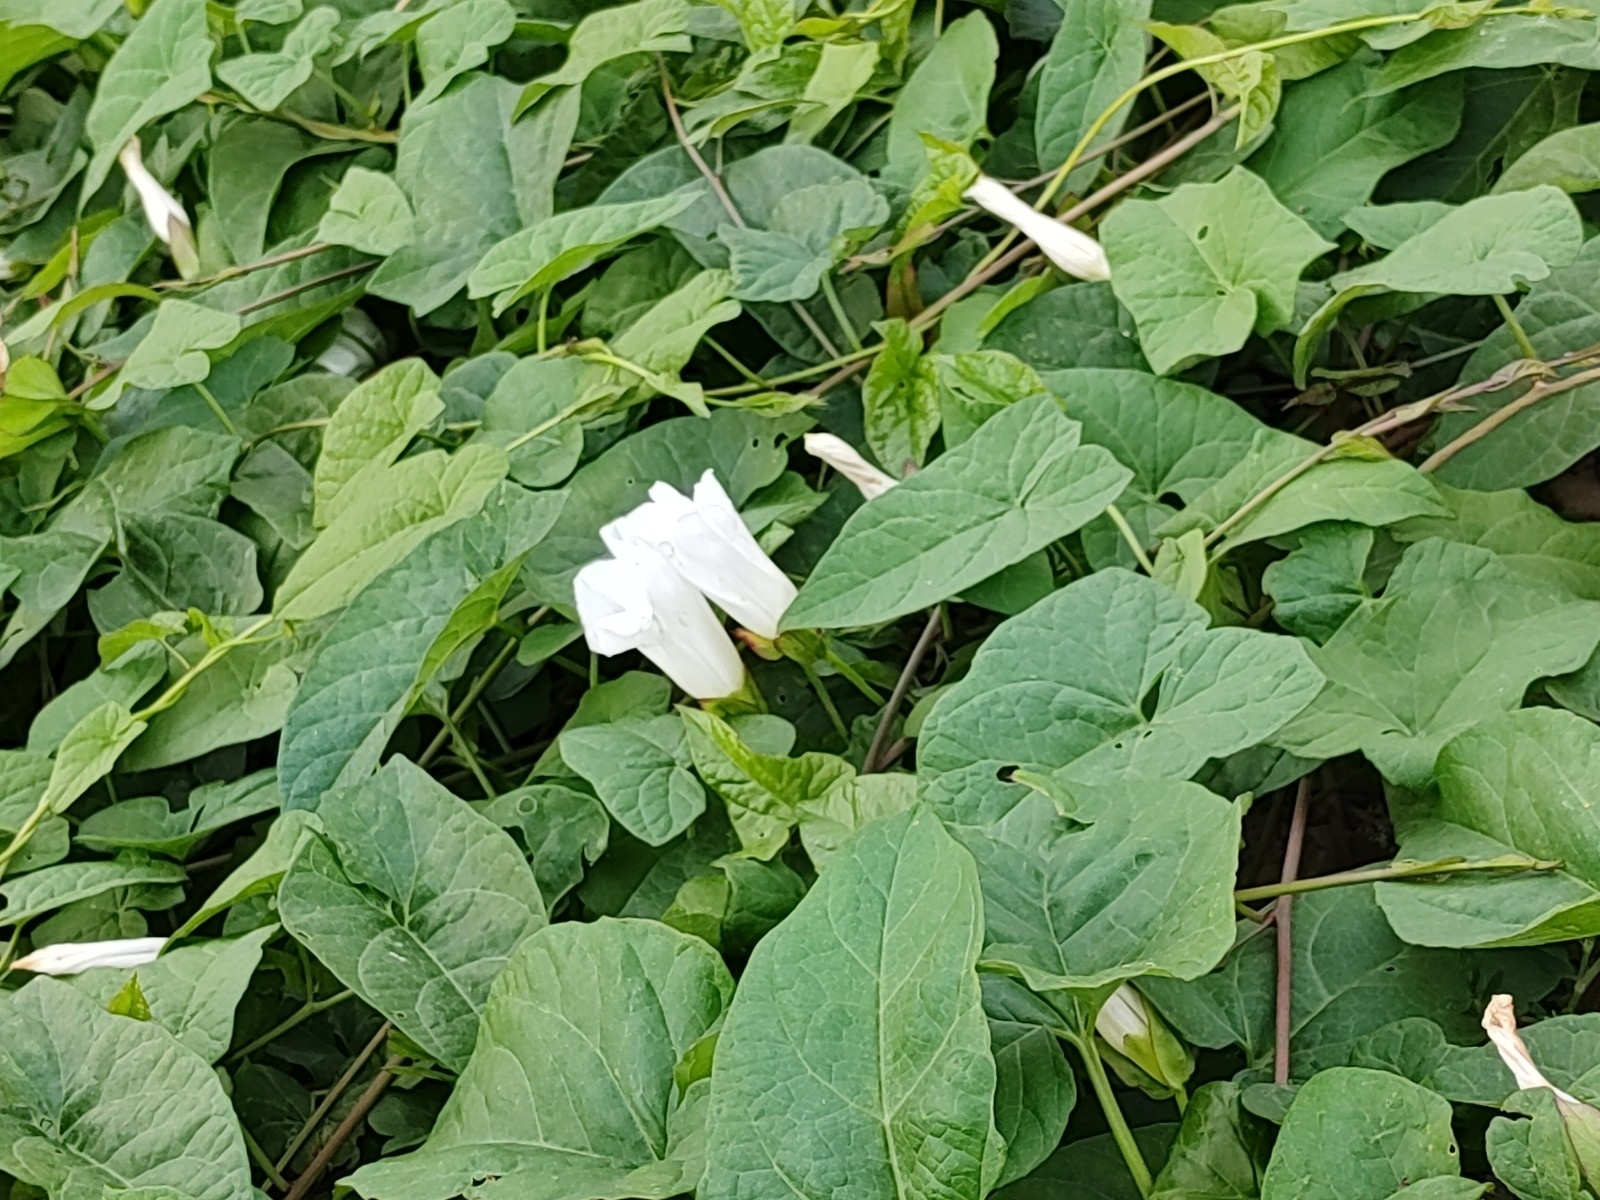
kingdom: Plantae
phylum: Tracheophyta
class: Magnoliopsida
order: Solanales
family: Convolvulaceae
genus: Calystegia
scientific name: Calystegia sepium
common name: Hedge bindweed
